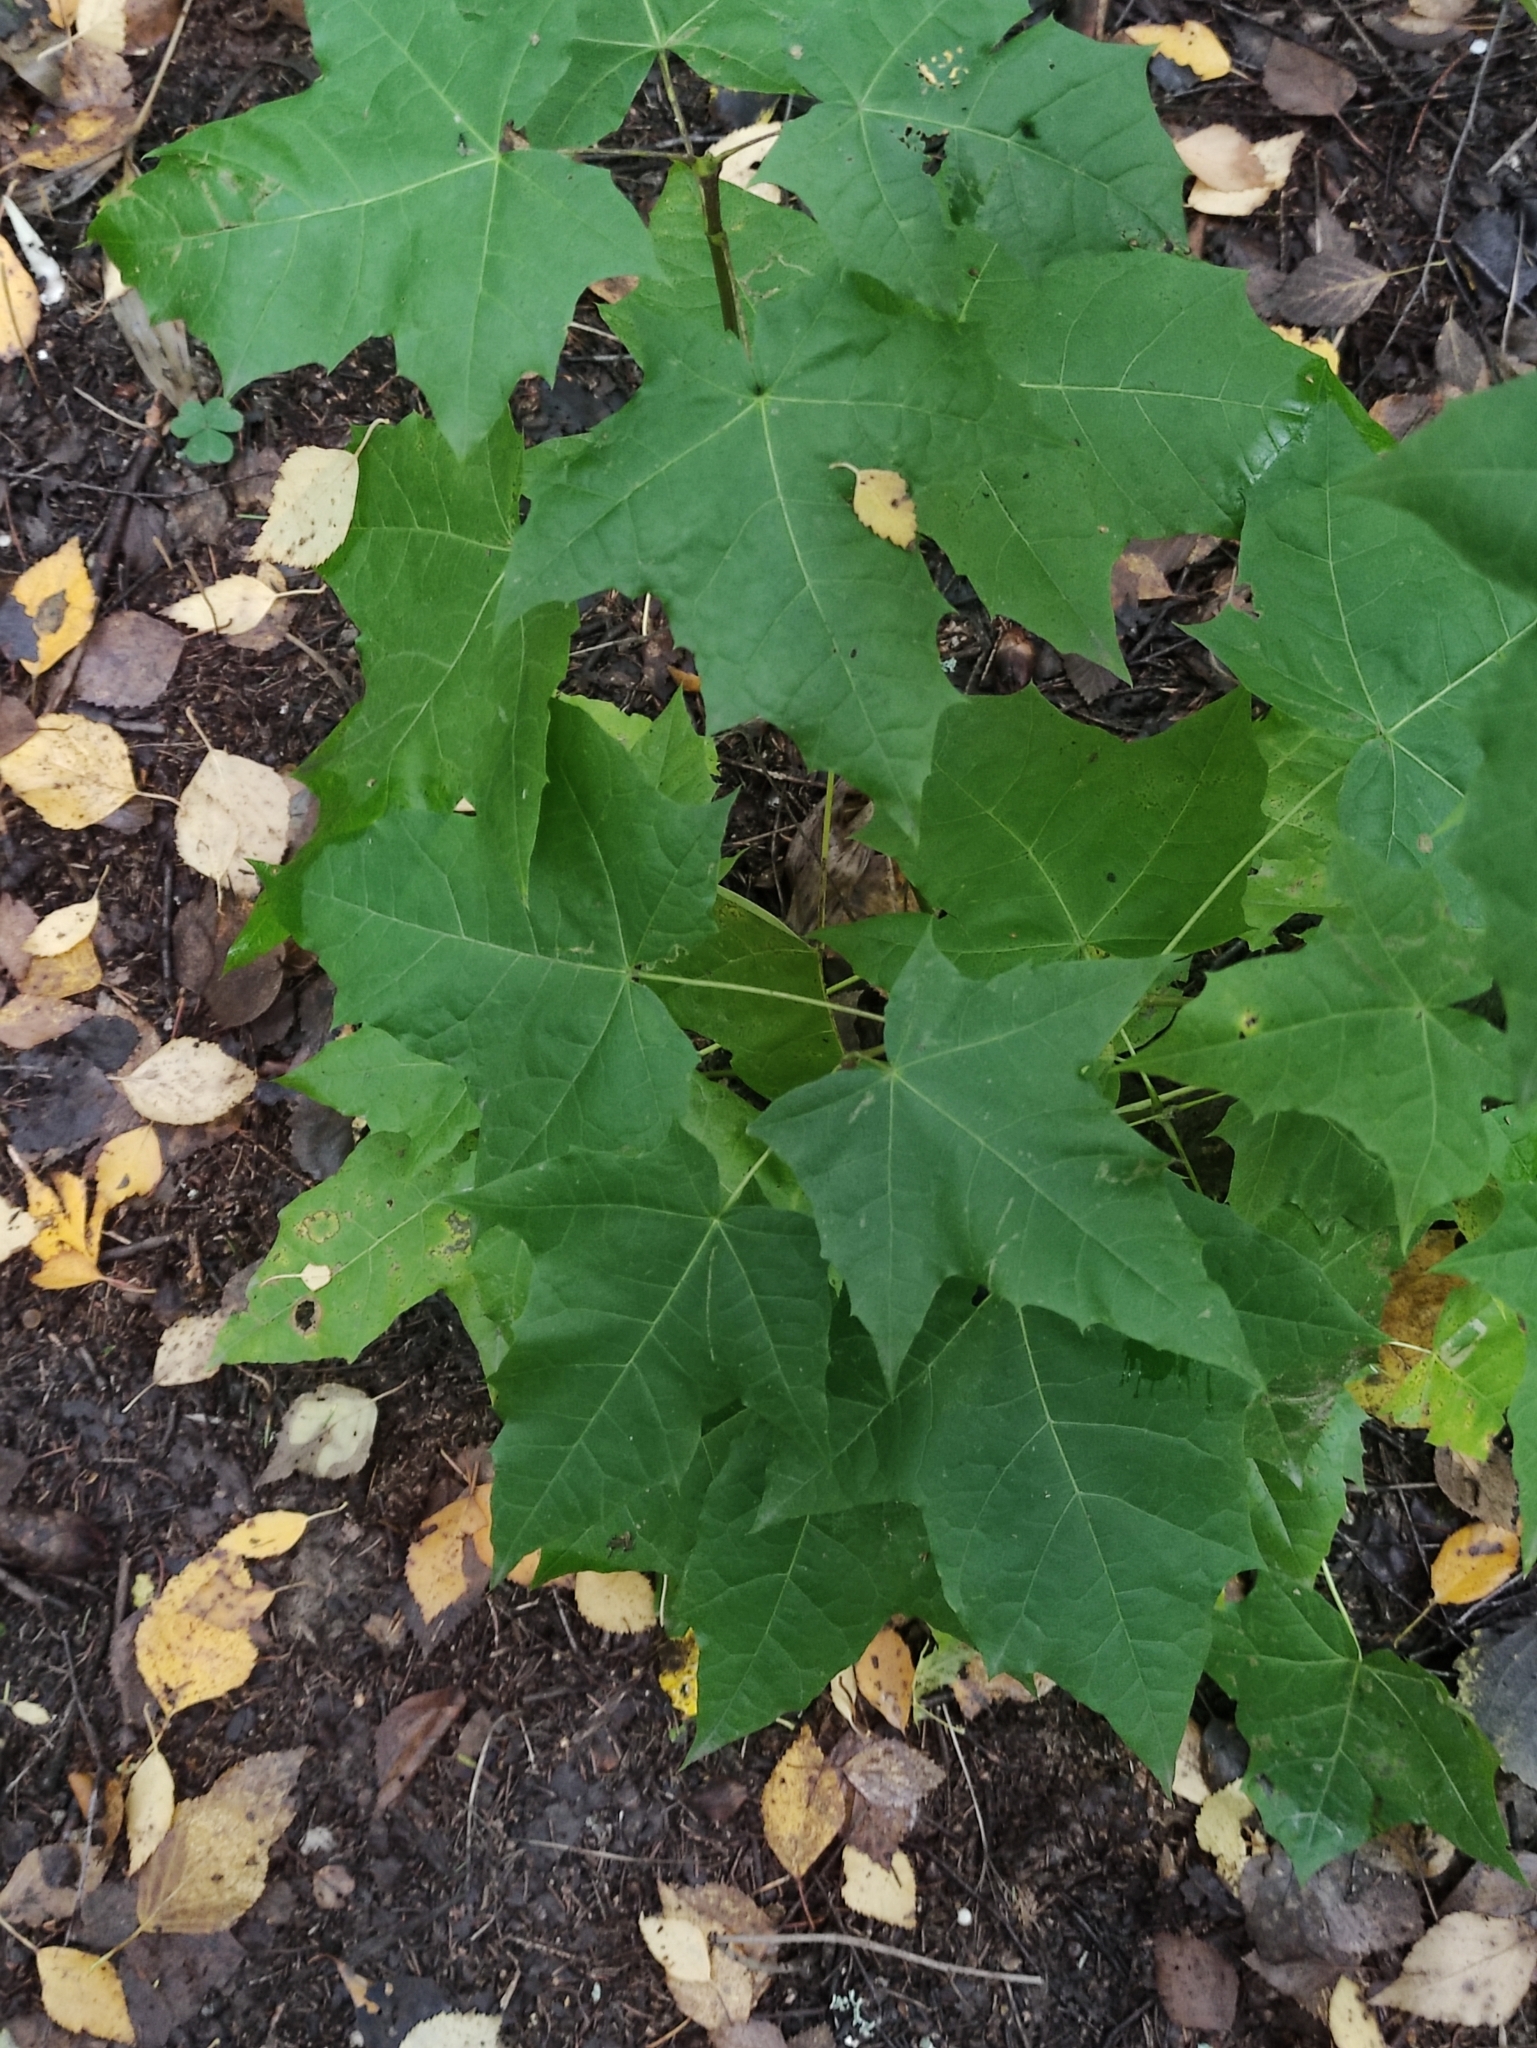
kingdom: Plantae
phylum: Tracheophyta
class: Magnoliopsida
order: Sapindales
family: Sapindaceae
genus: Acer
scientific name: Acer platanoides
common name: Norway maple
